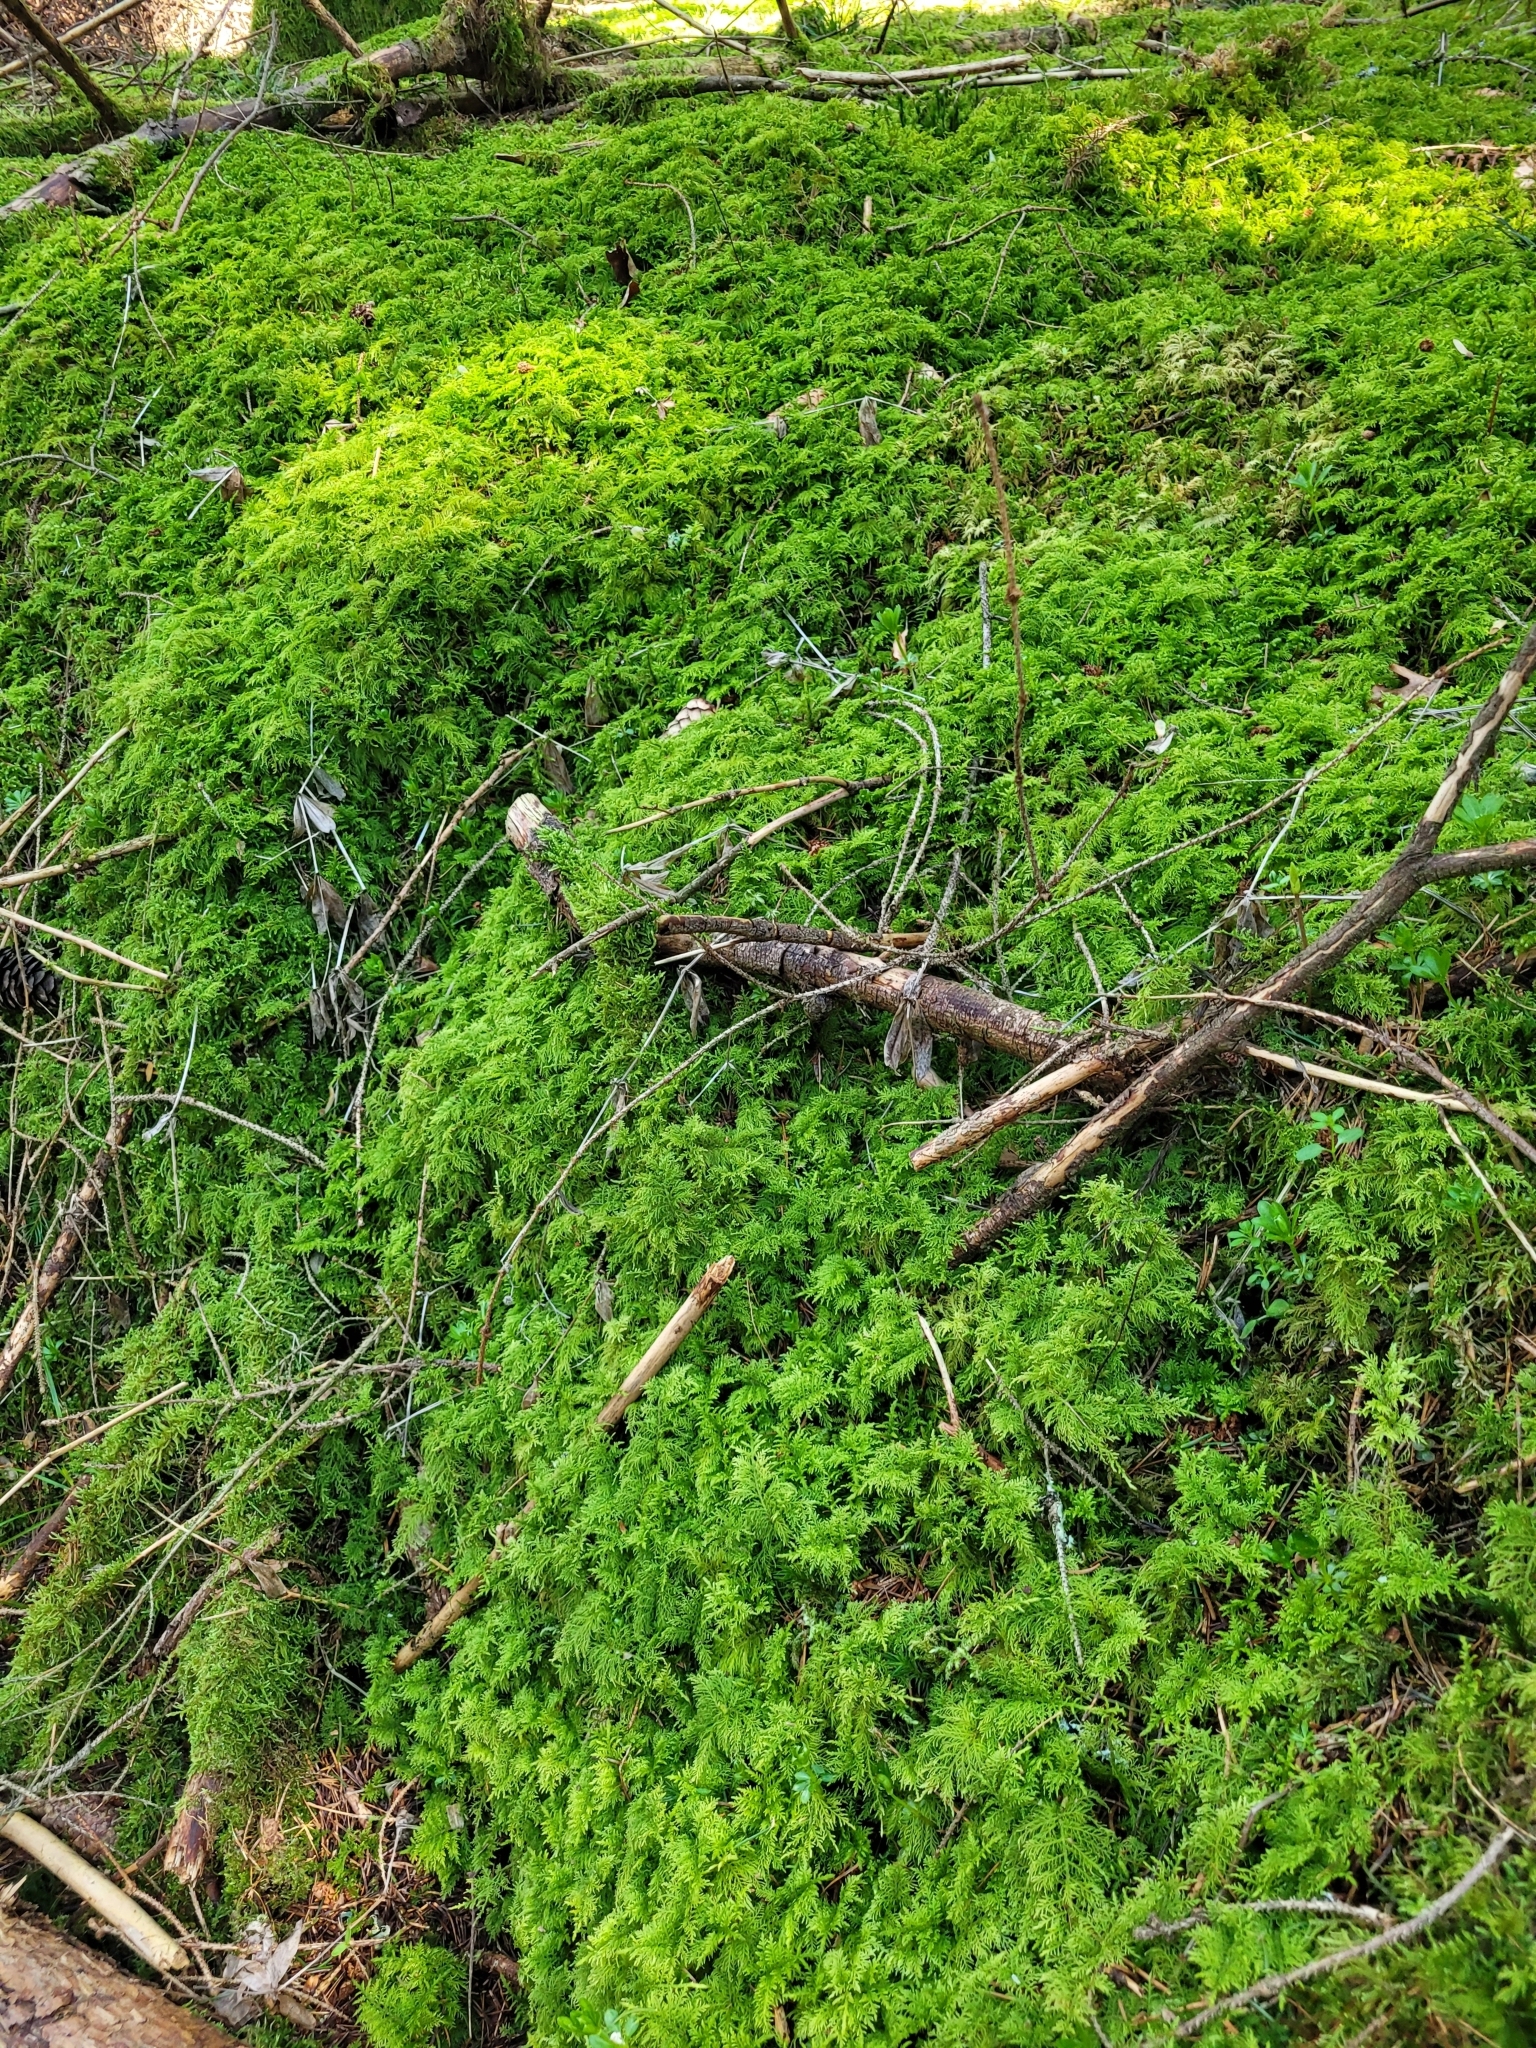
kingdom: Plantae
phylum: Bryophyta
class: Bryopsida
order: Hypnales
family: Hylocomiaceae
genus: Hylocomium
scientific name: Hylocomium splendens
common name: Stairstep moss
